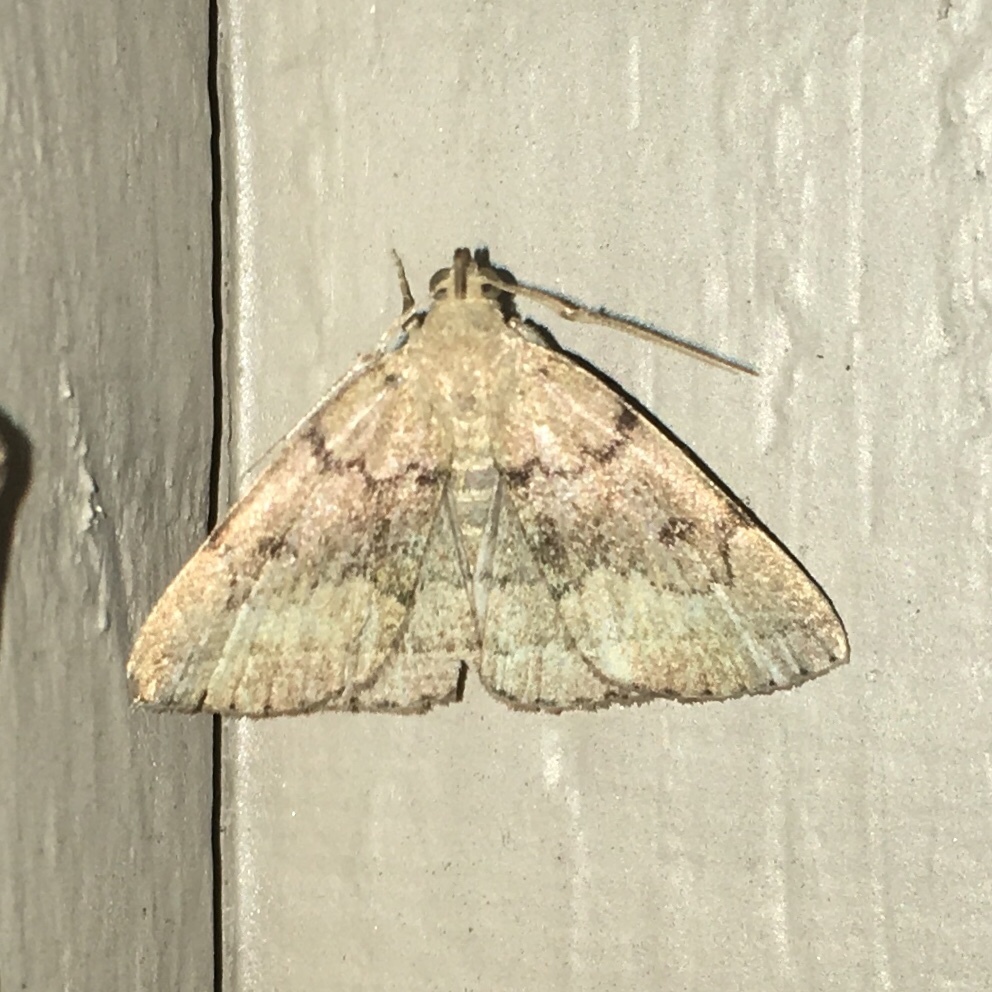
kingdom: Animalia
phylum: Arthropoda
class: Insecta
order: Lepidoptera
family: Erebidae
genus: Zanclognatha
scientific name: Zanclognatha dentata
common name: Toothed fan-foot
